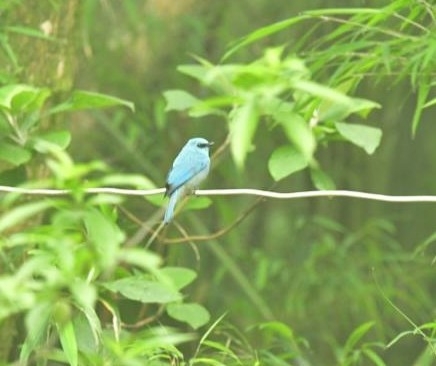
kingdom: Animalia
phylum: Chordata
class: Aves
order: Passeriformes
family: Muscicapidae
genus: Eumyias
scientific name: Eumyias thalassinus
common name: Verditer flycatcher
